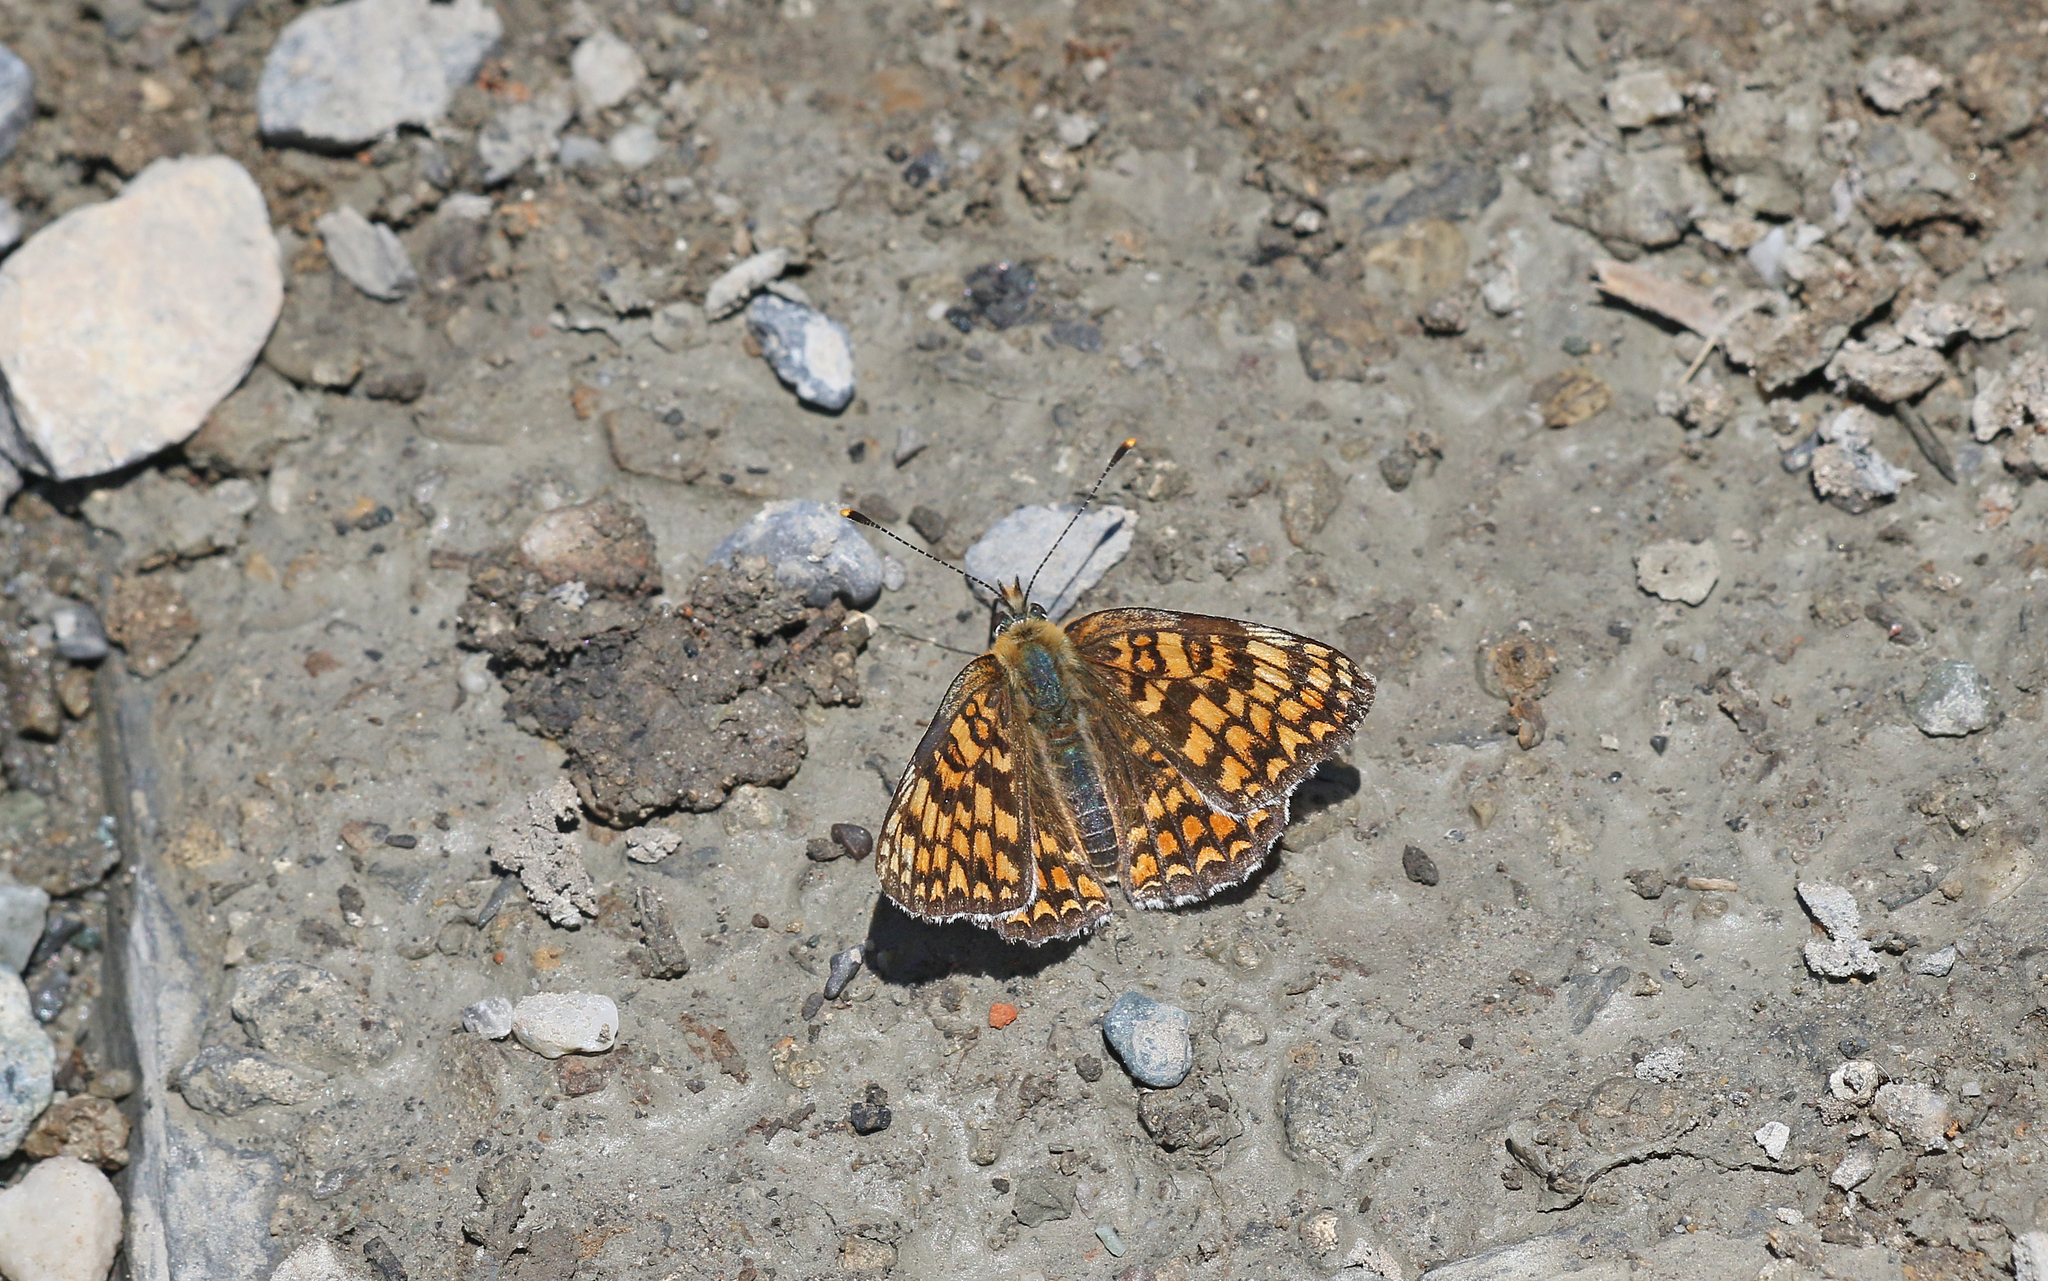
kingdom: Animalia
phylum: Arthropoda
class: Insecta
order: Lepidoptera
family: Nymphalidae
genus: Melitaea
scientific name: Melitaea phoebe
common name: Knapweed fritillary
